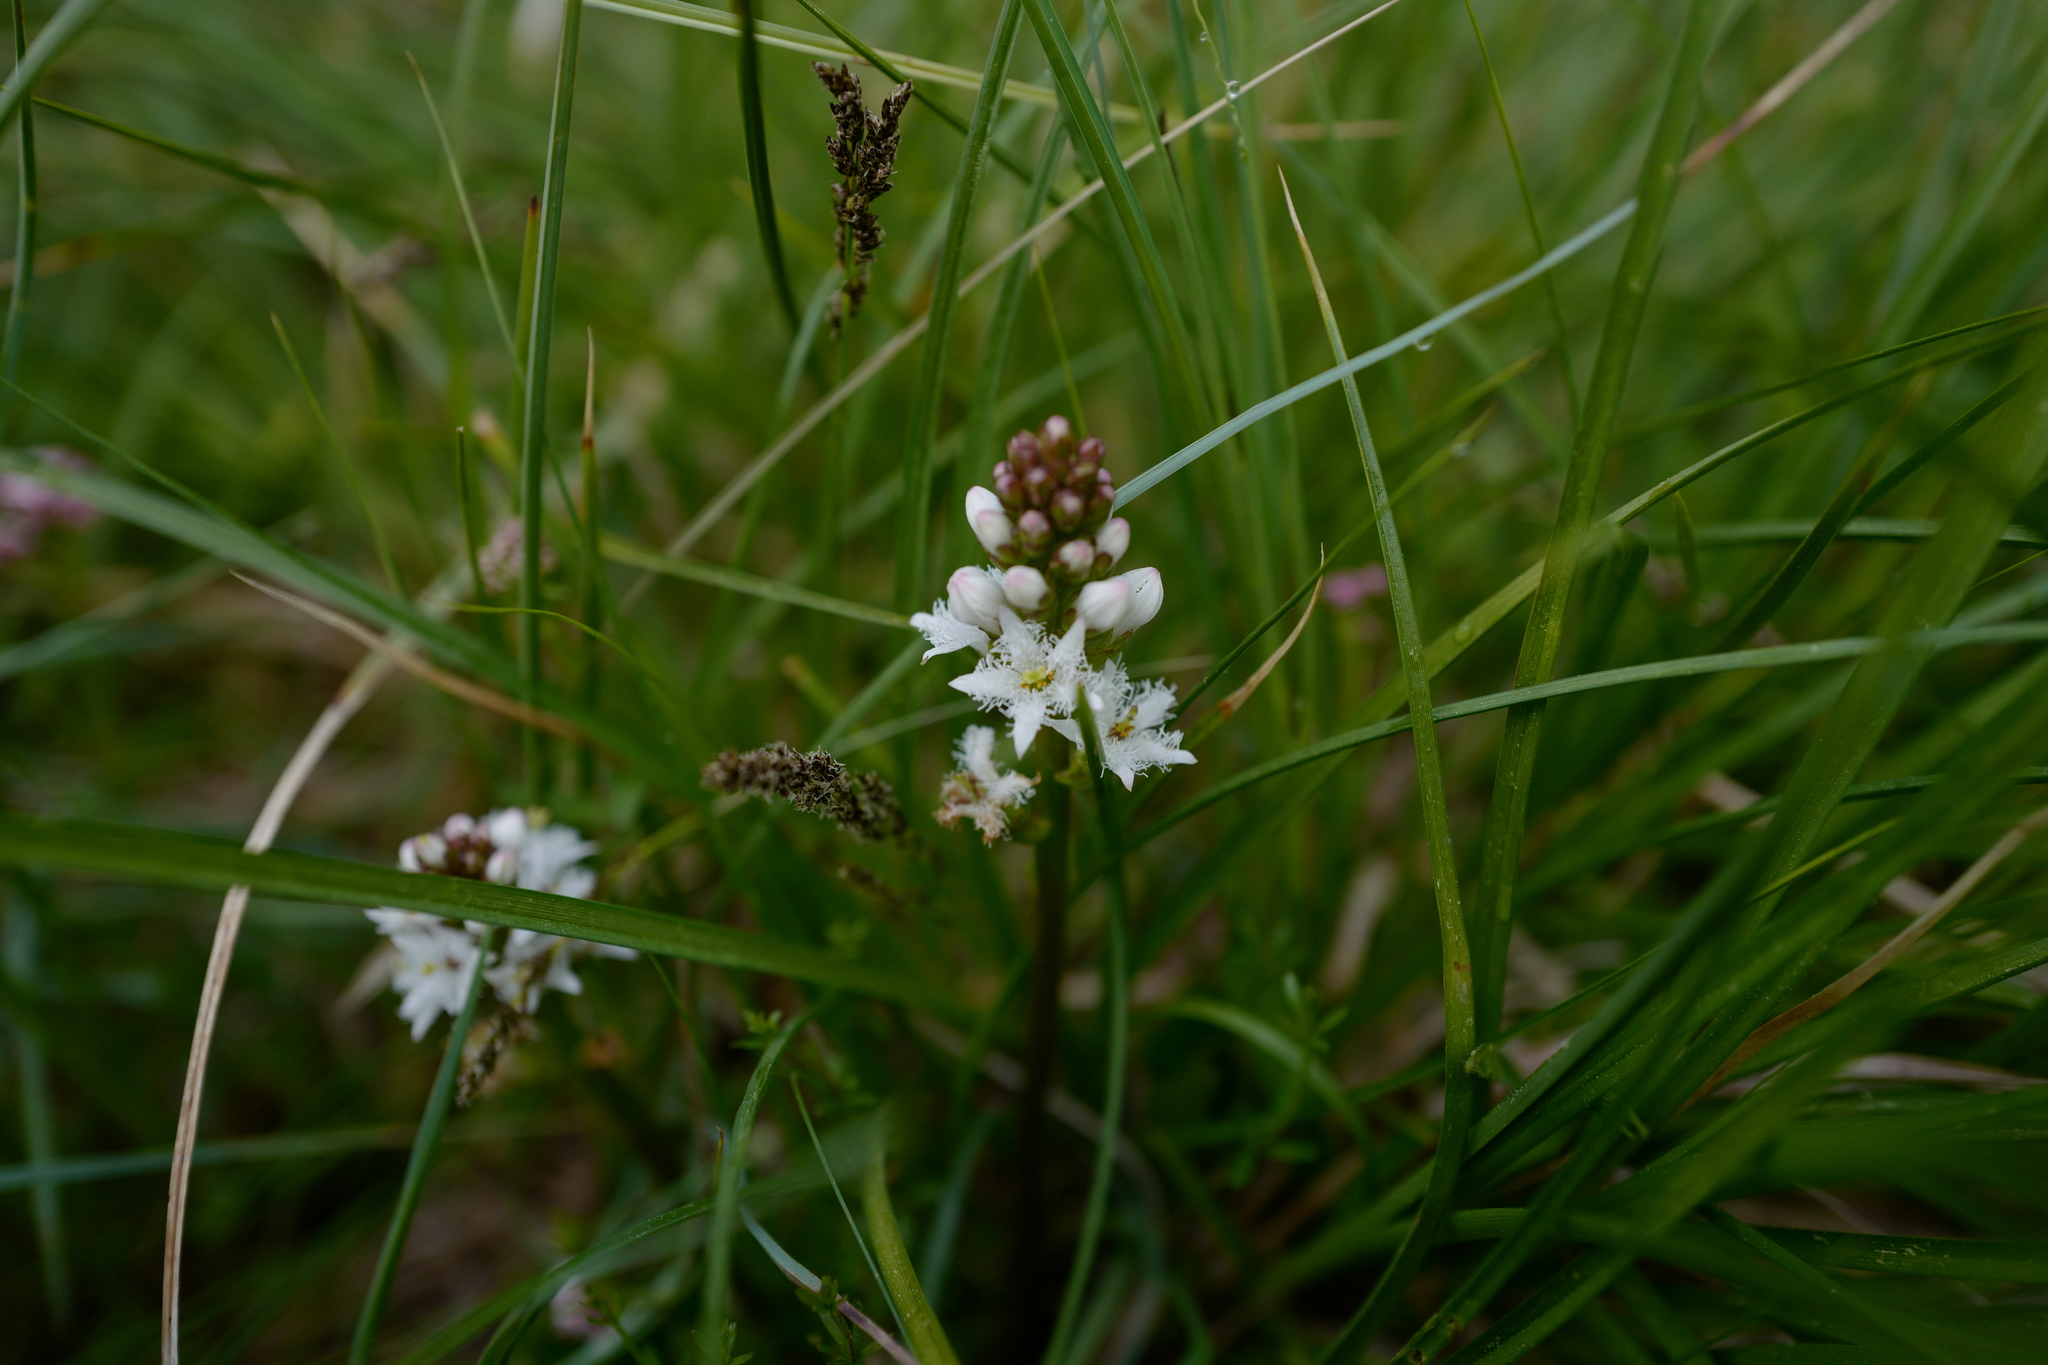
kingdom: Plantae
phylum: Tracheophyta
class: Magnoliopsida
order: Asterales
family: Menyanthaceae
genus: Menyanthes
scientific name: Menyanthes trifoliata
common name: Bogbean
